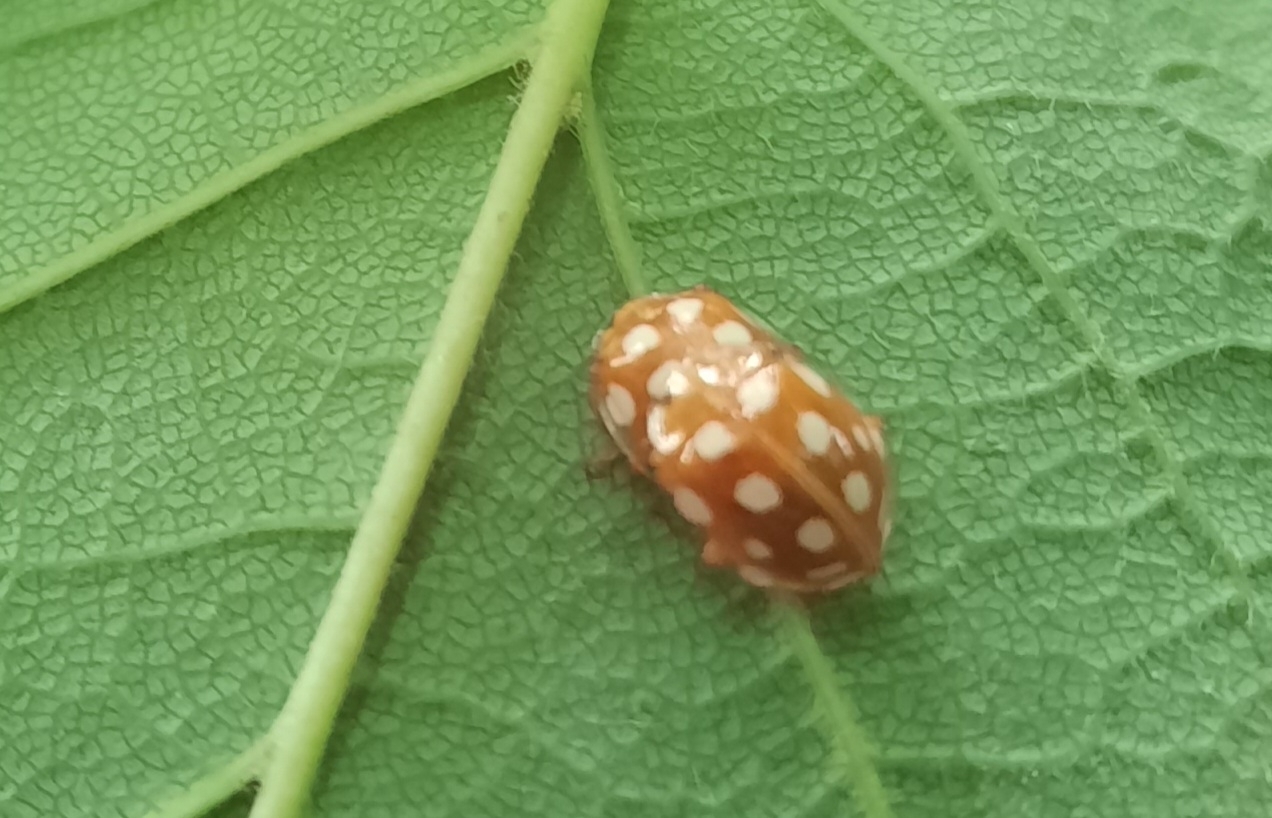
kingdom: Animalia
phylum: Arthropoda
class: Insecta
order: Coleoptera
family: Coccinellidae
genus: Halyzia
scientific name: Halyzia sedecimguttata
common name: Orange ladybird
